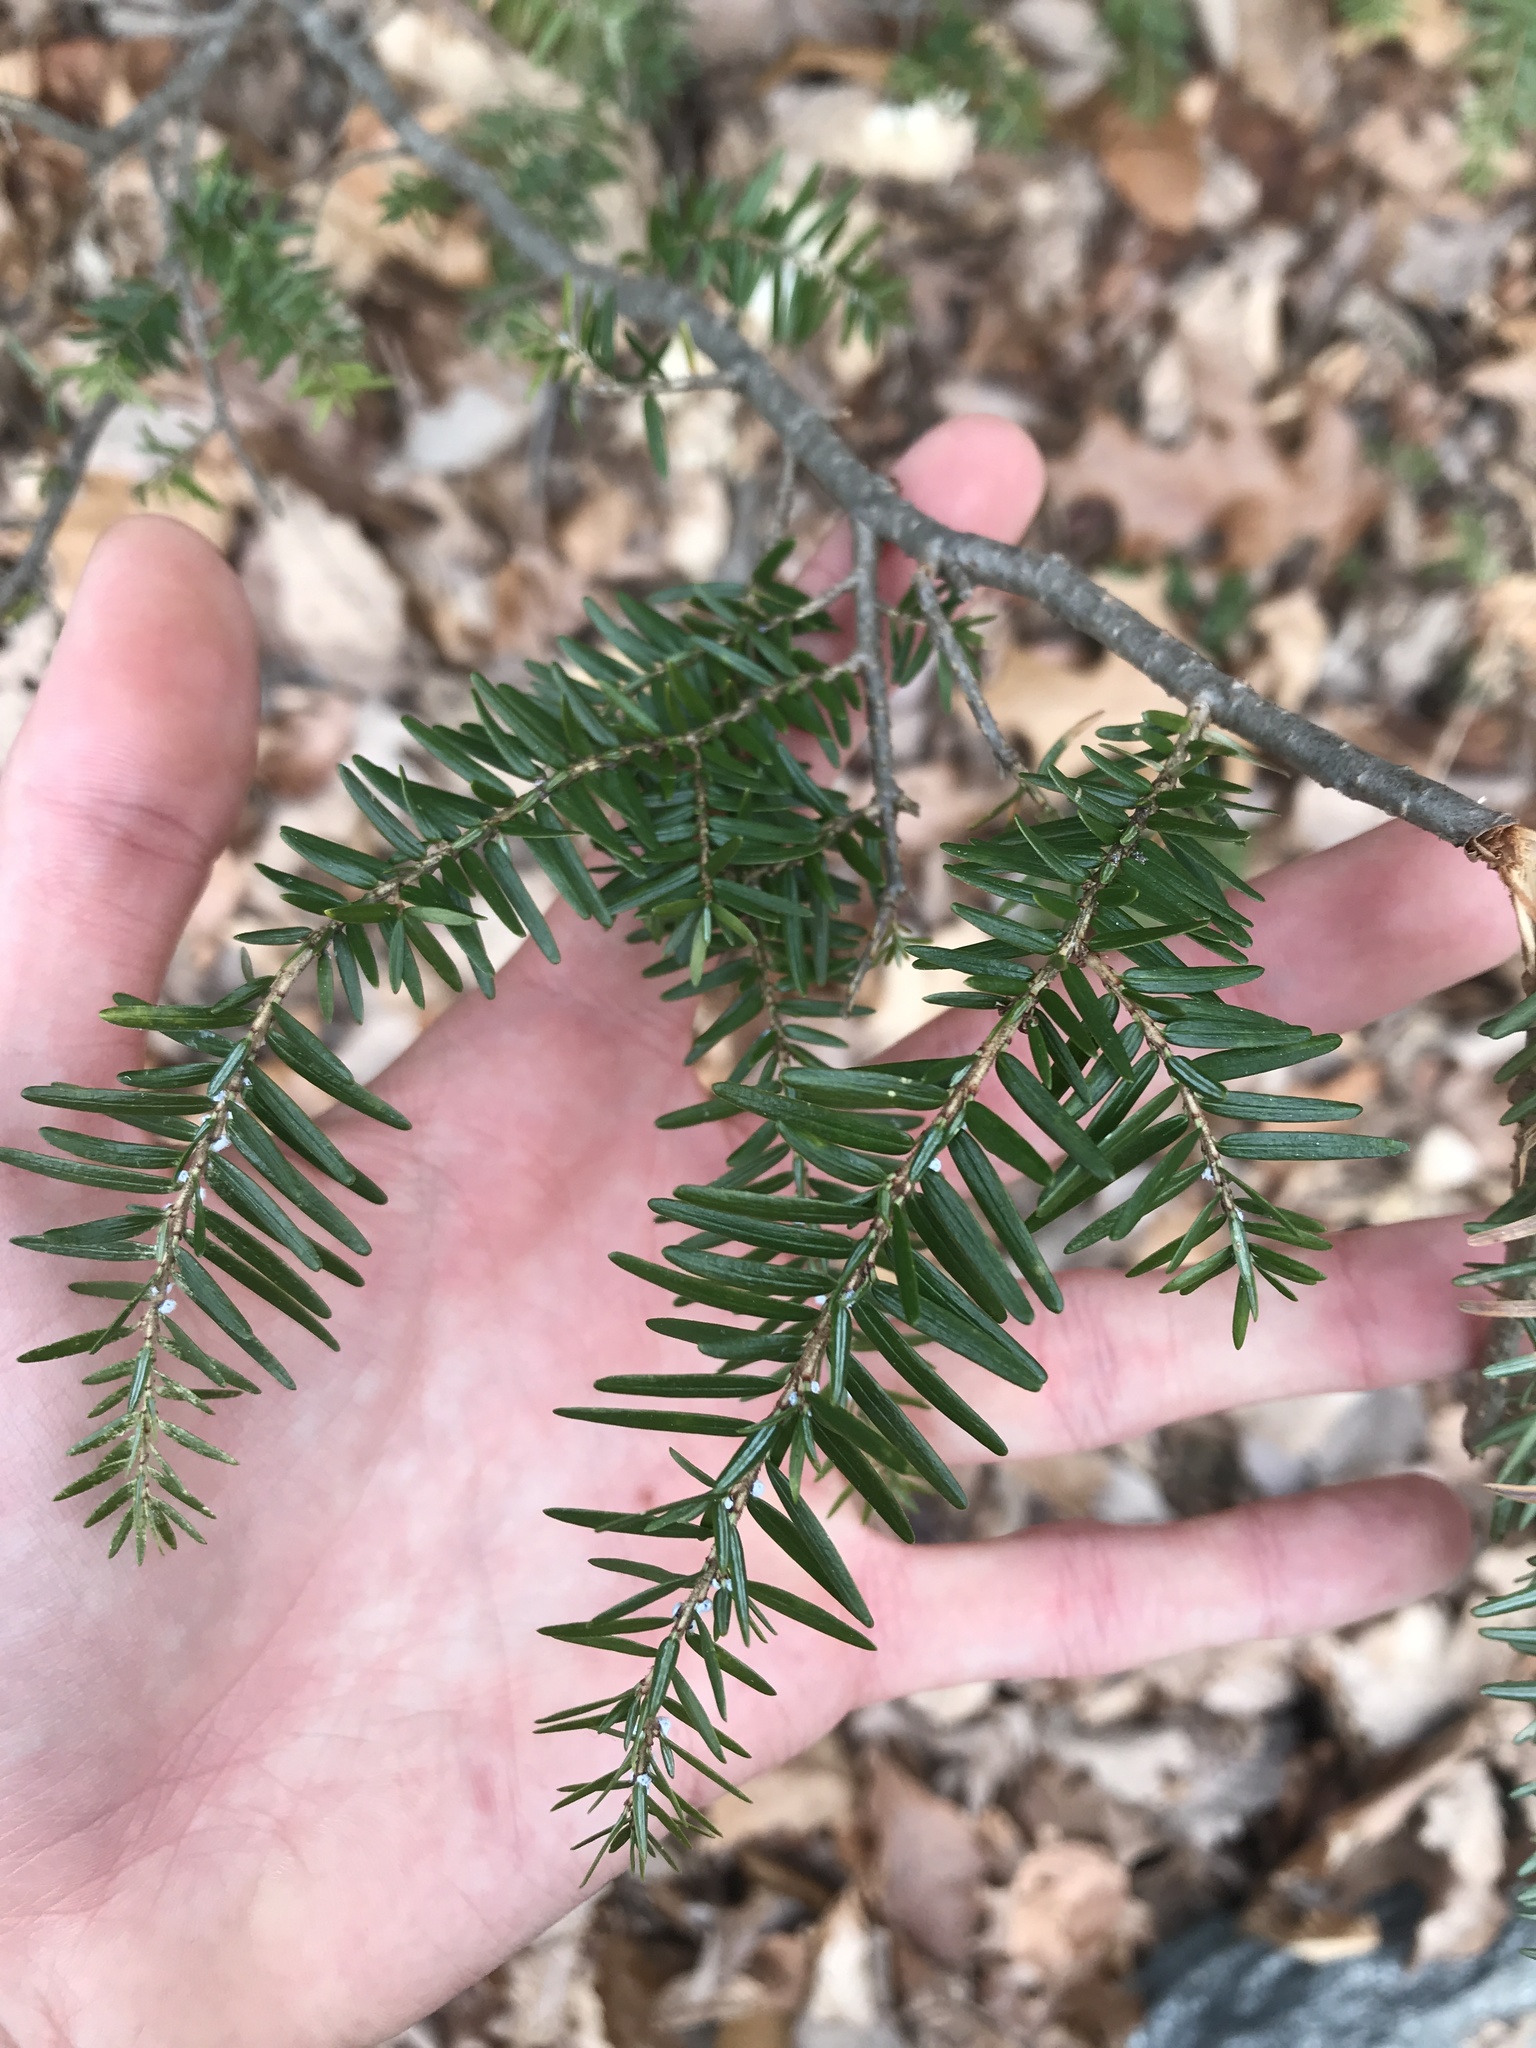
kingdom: Plantae
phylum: Tracheophyta
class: Pinopsida
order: Pinales
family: Pinaceae
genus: Tsuga
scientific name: Tsuga canadensis
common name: Eastern hemlock
